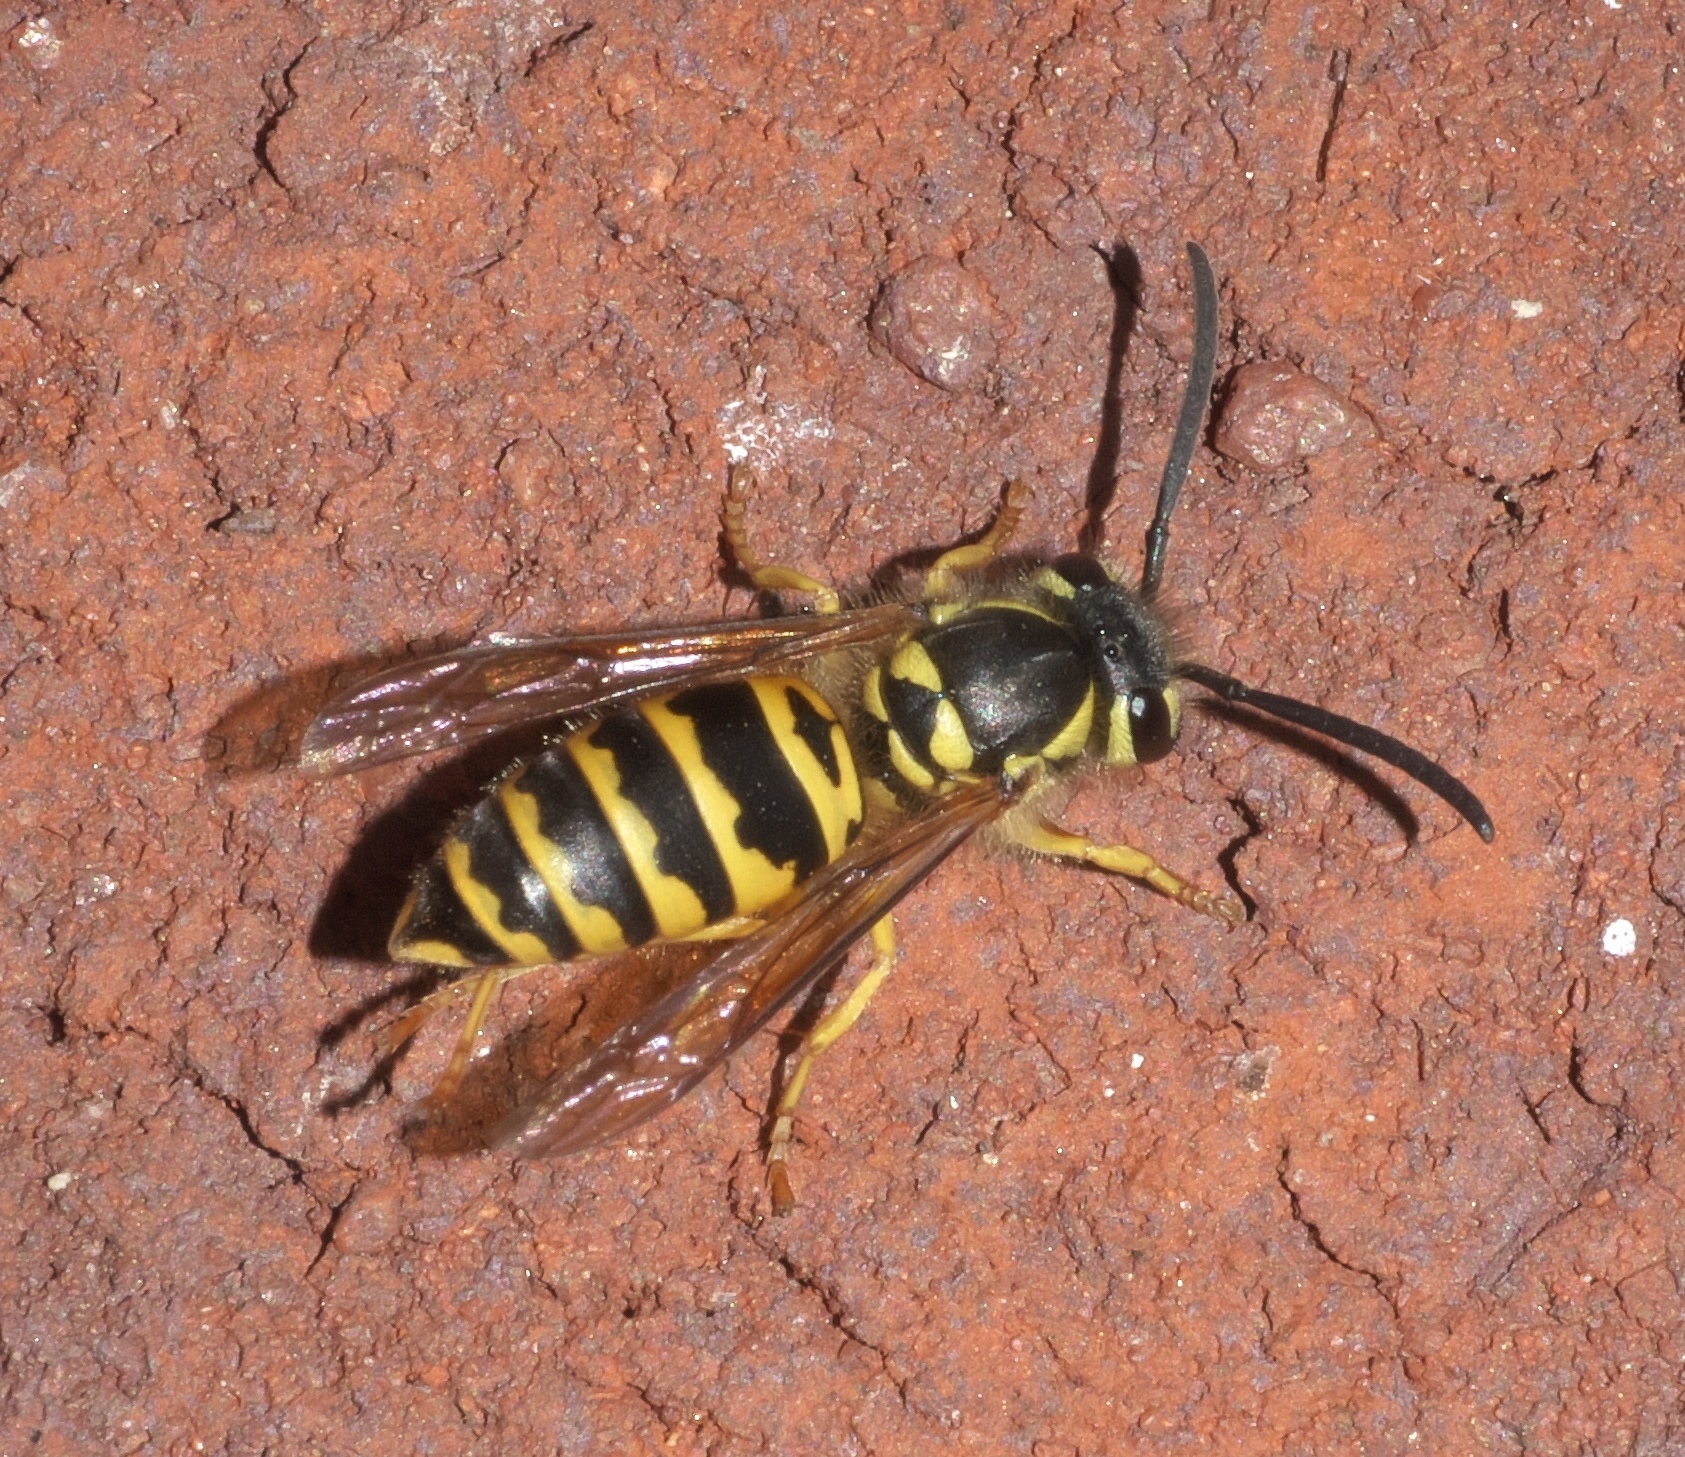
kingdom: Animalia
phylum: Arthropoda
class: Insecta
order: Hymenoptera
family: Vespidae
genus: Vespula
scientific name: Vespula maculifrons
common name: Eastern yellowjacket
